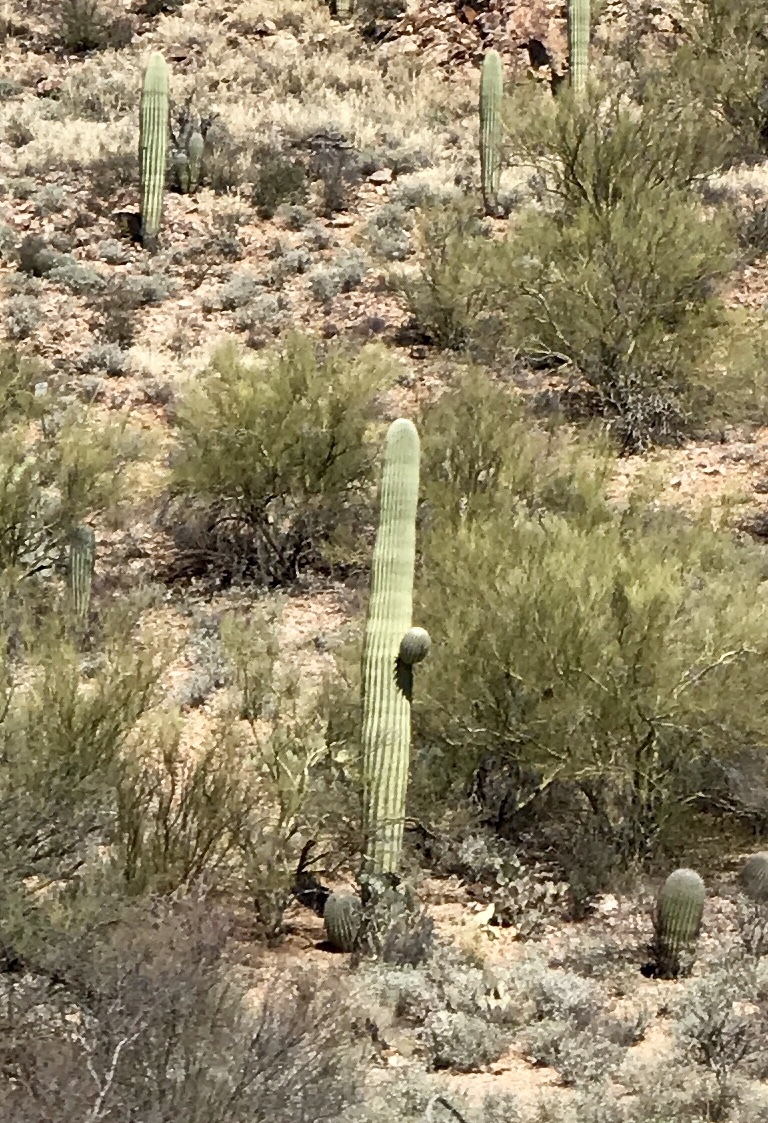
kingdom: Plantae
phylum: Tracheophyta
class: Magnoliopsida
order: Caryophyllales
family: Cactaceae
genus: Carnegiea
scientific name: Carnegiea gigantea
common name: Saguaro
